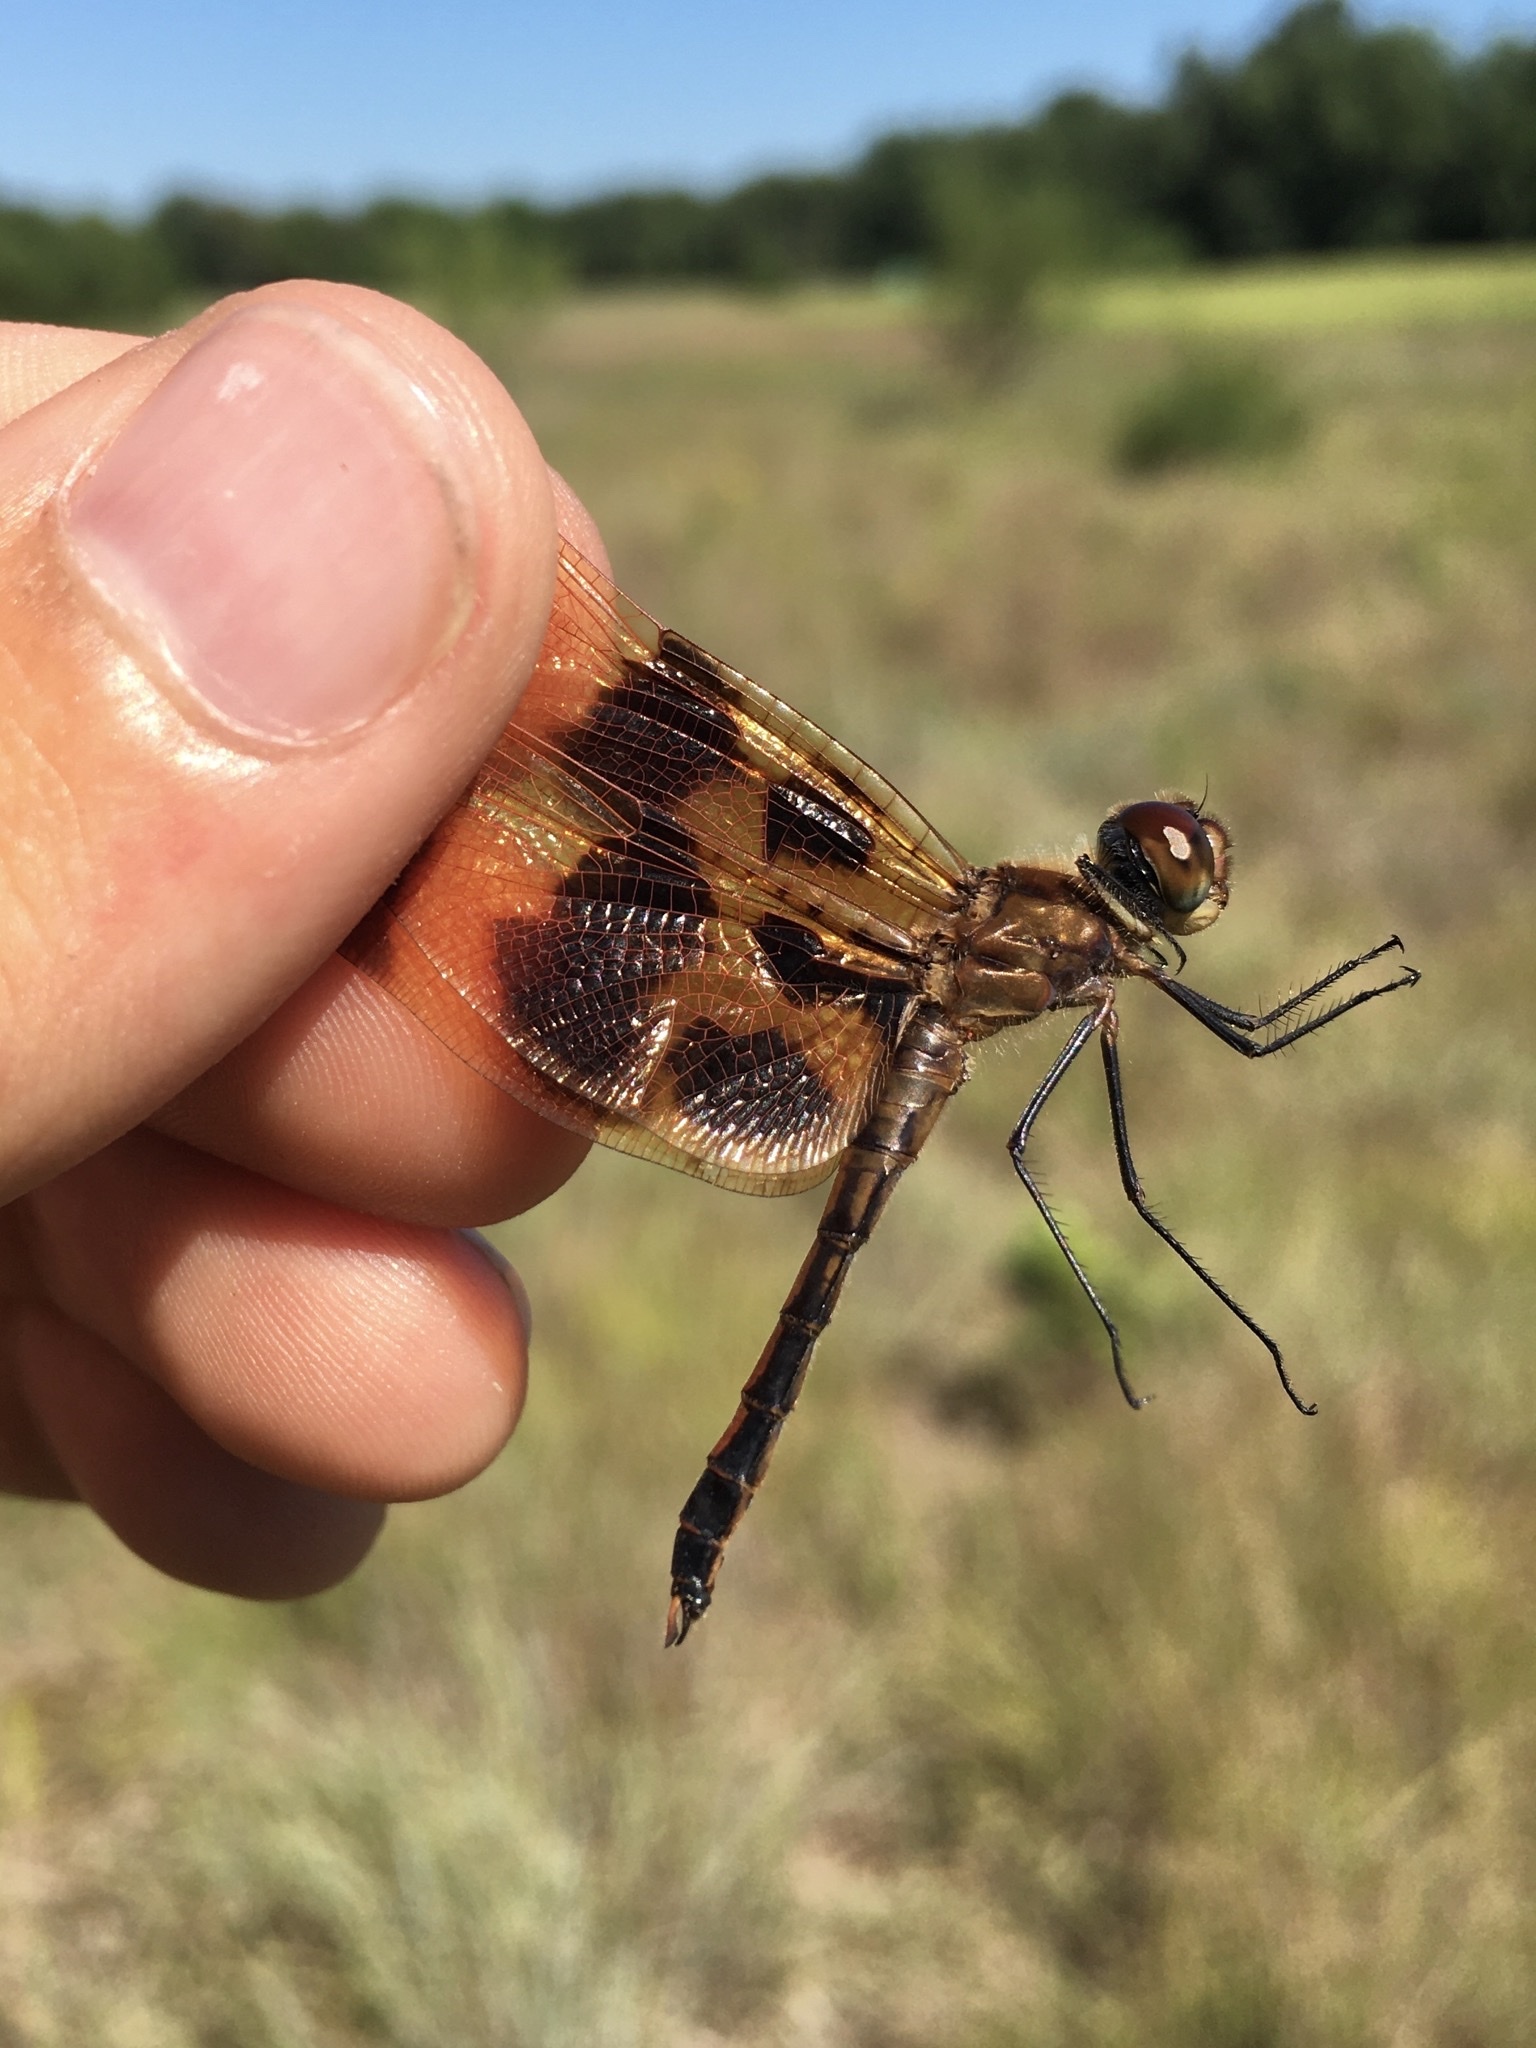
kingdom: Animalia
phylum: Arthropoda
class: Insecta
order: Odonata
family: Libellulidae
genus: Celithemis
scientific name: Celithemis eponina
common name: Halloween pennant
